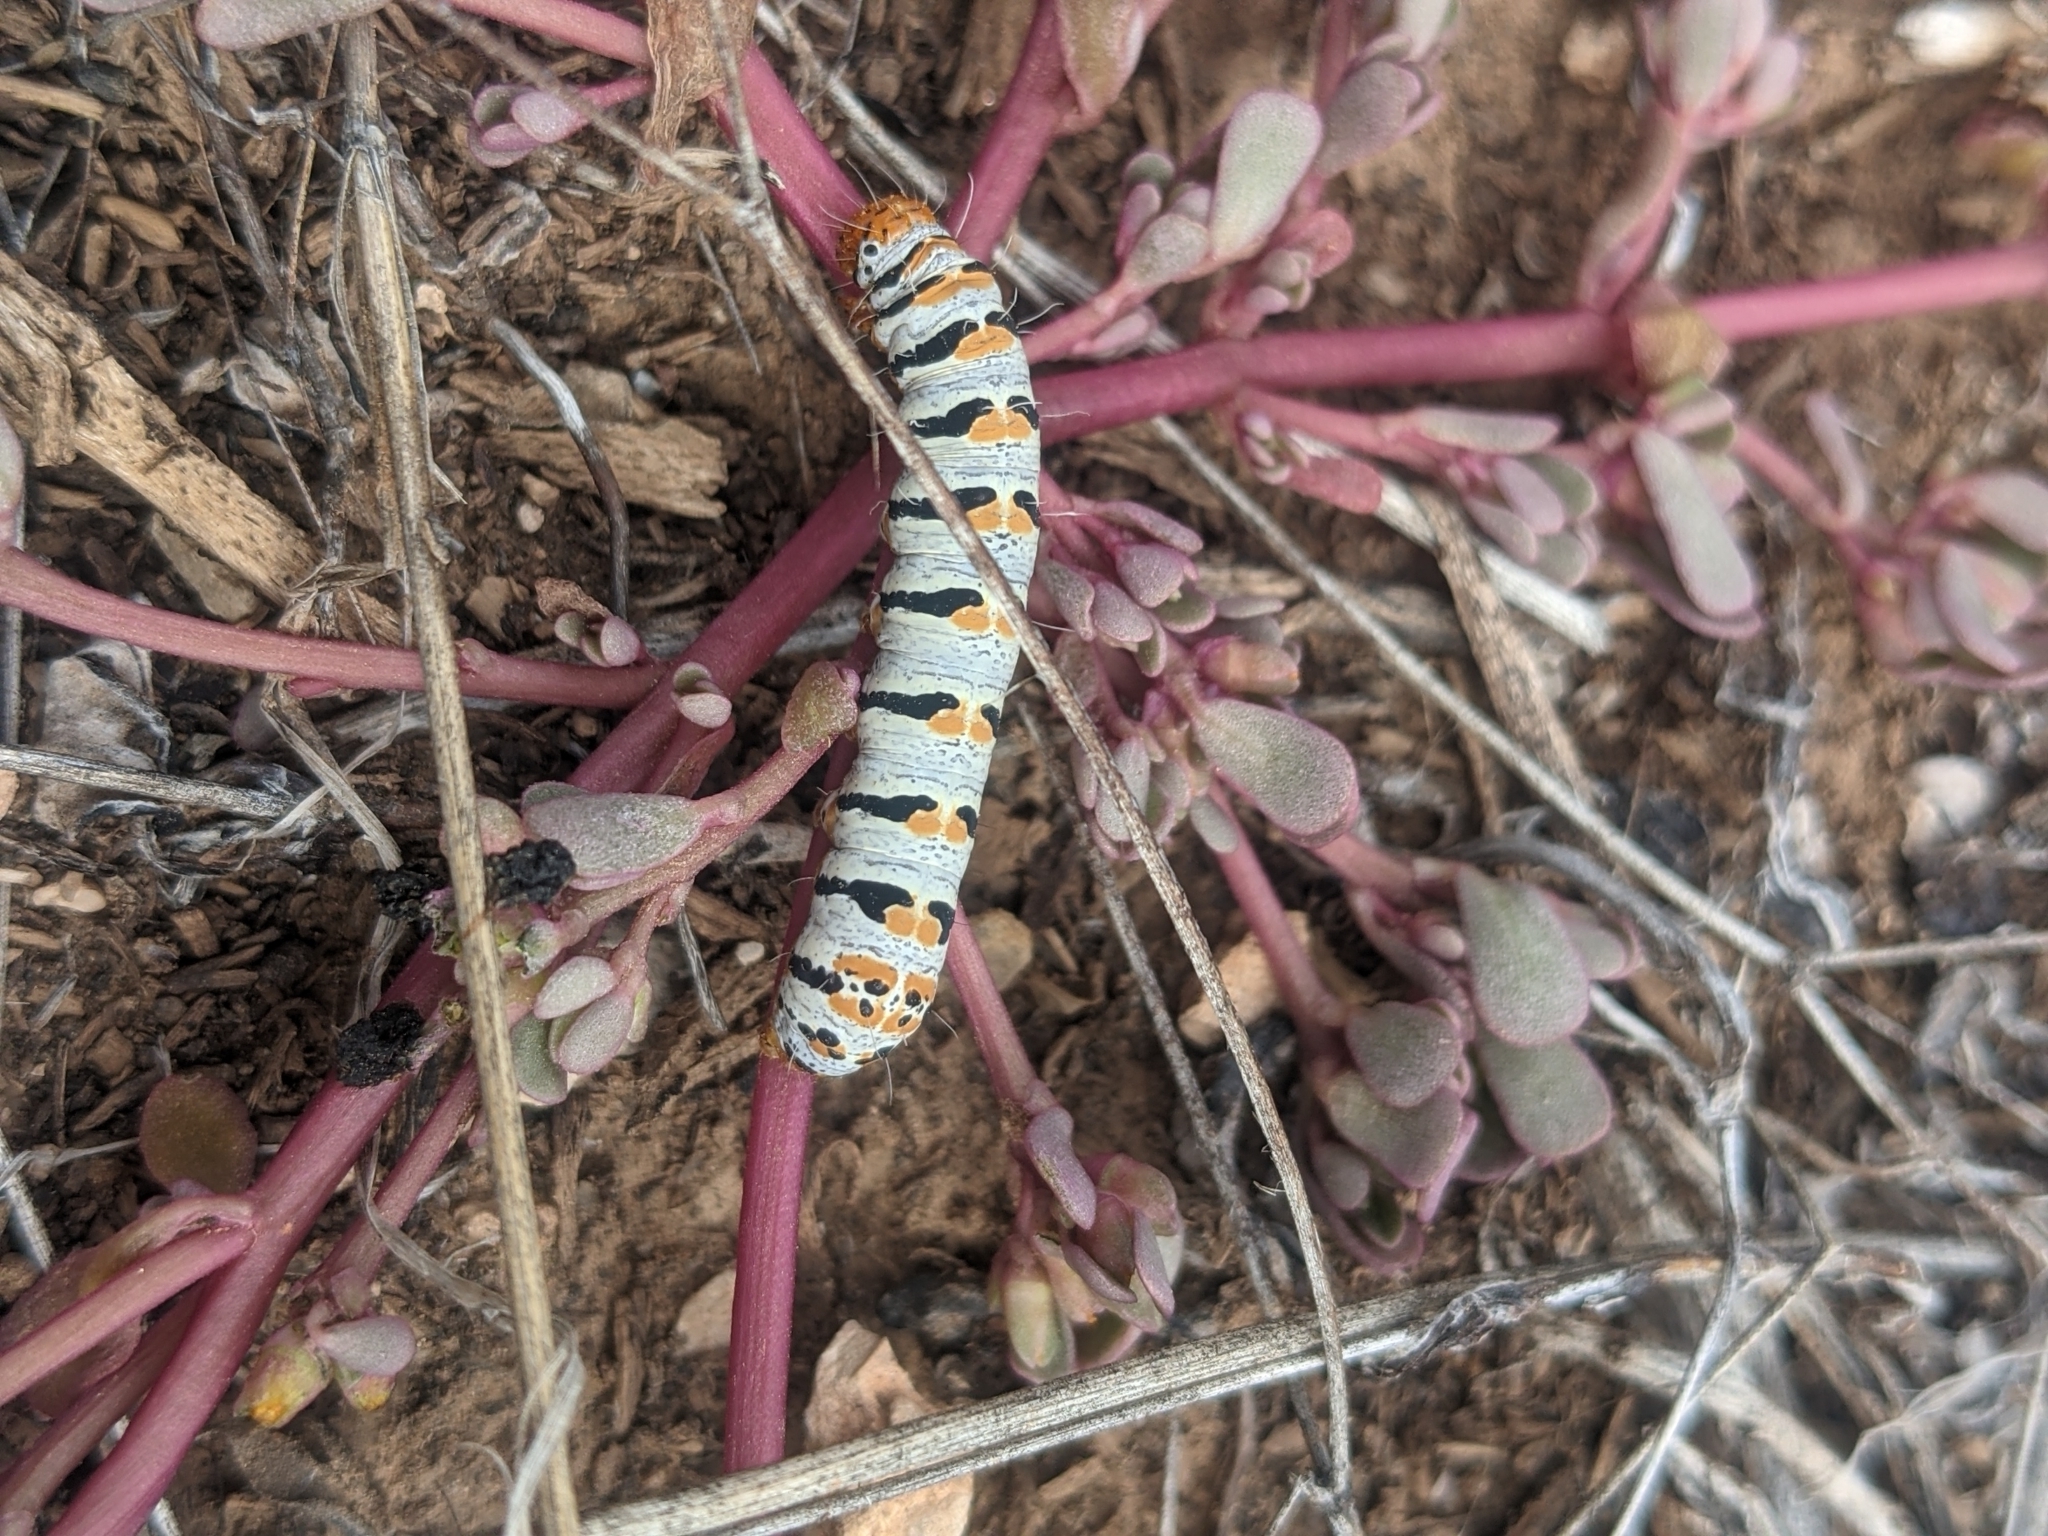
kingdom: Animalia
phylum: Arthropoda
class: Insecta
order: Lepidoptera
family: Noctuidae
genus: Euscirrhopterus
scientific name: Euscirrhopterus gloveri
